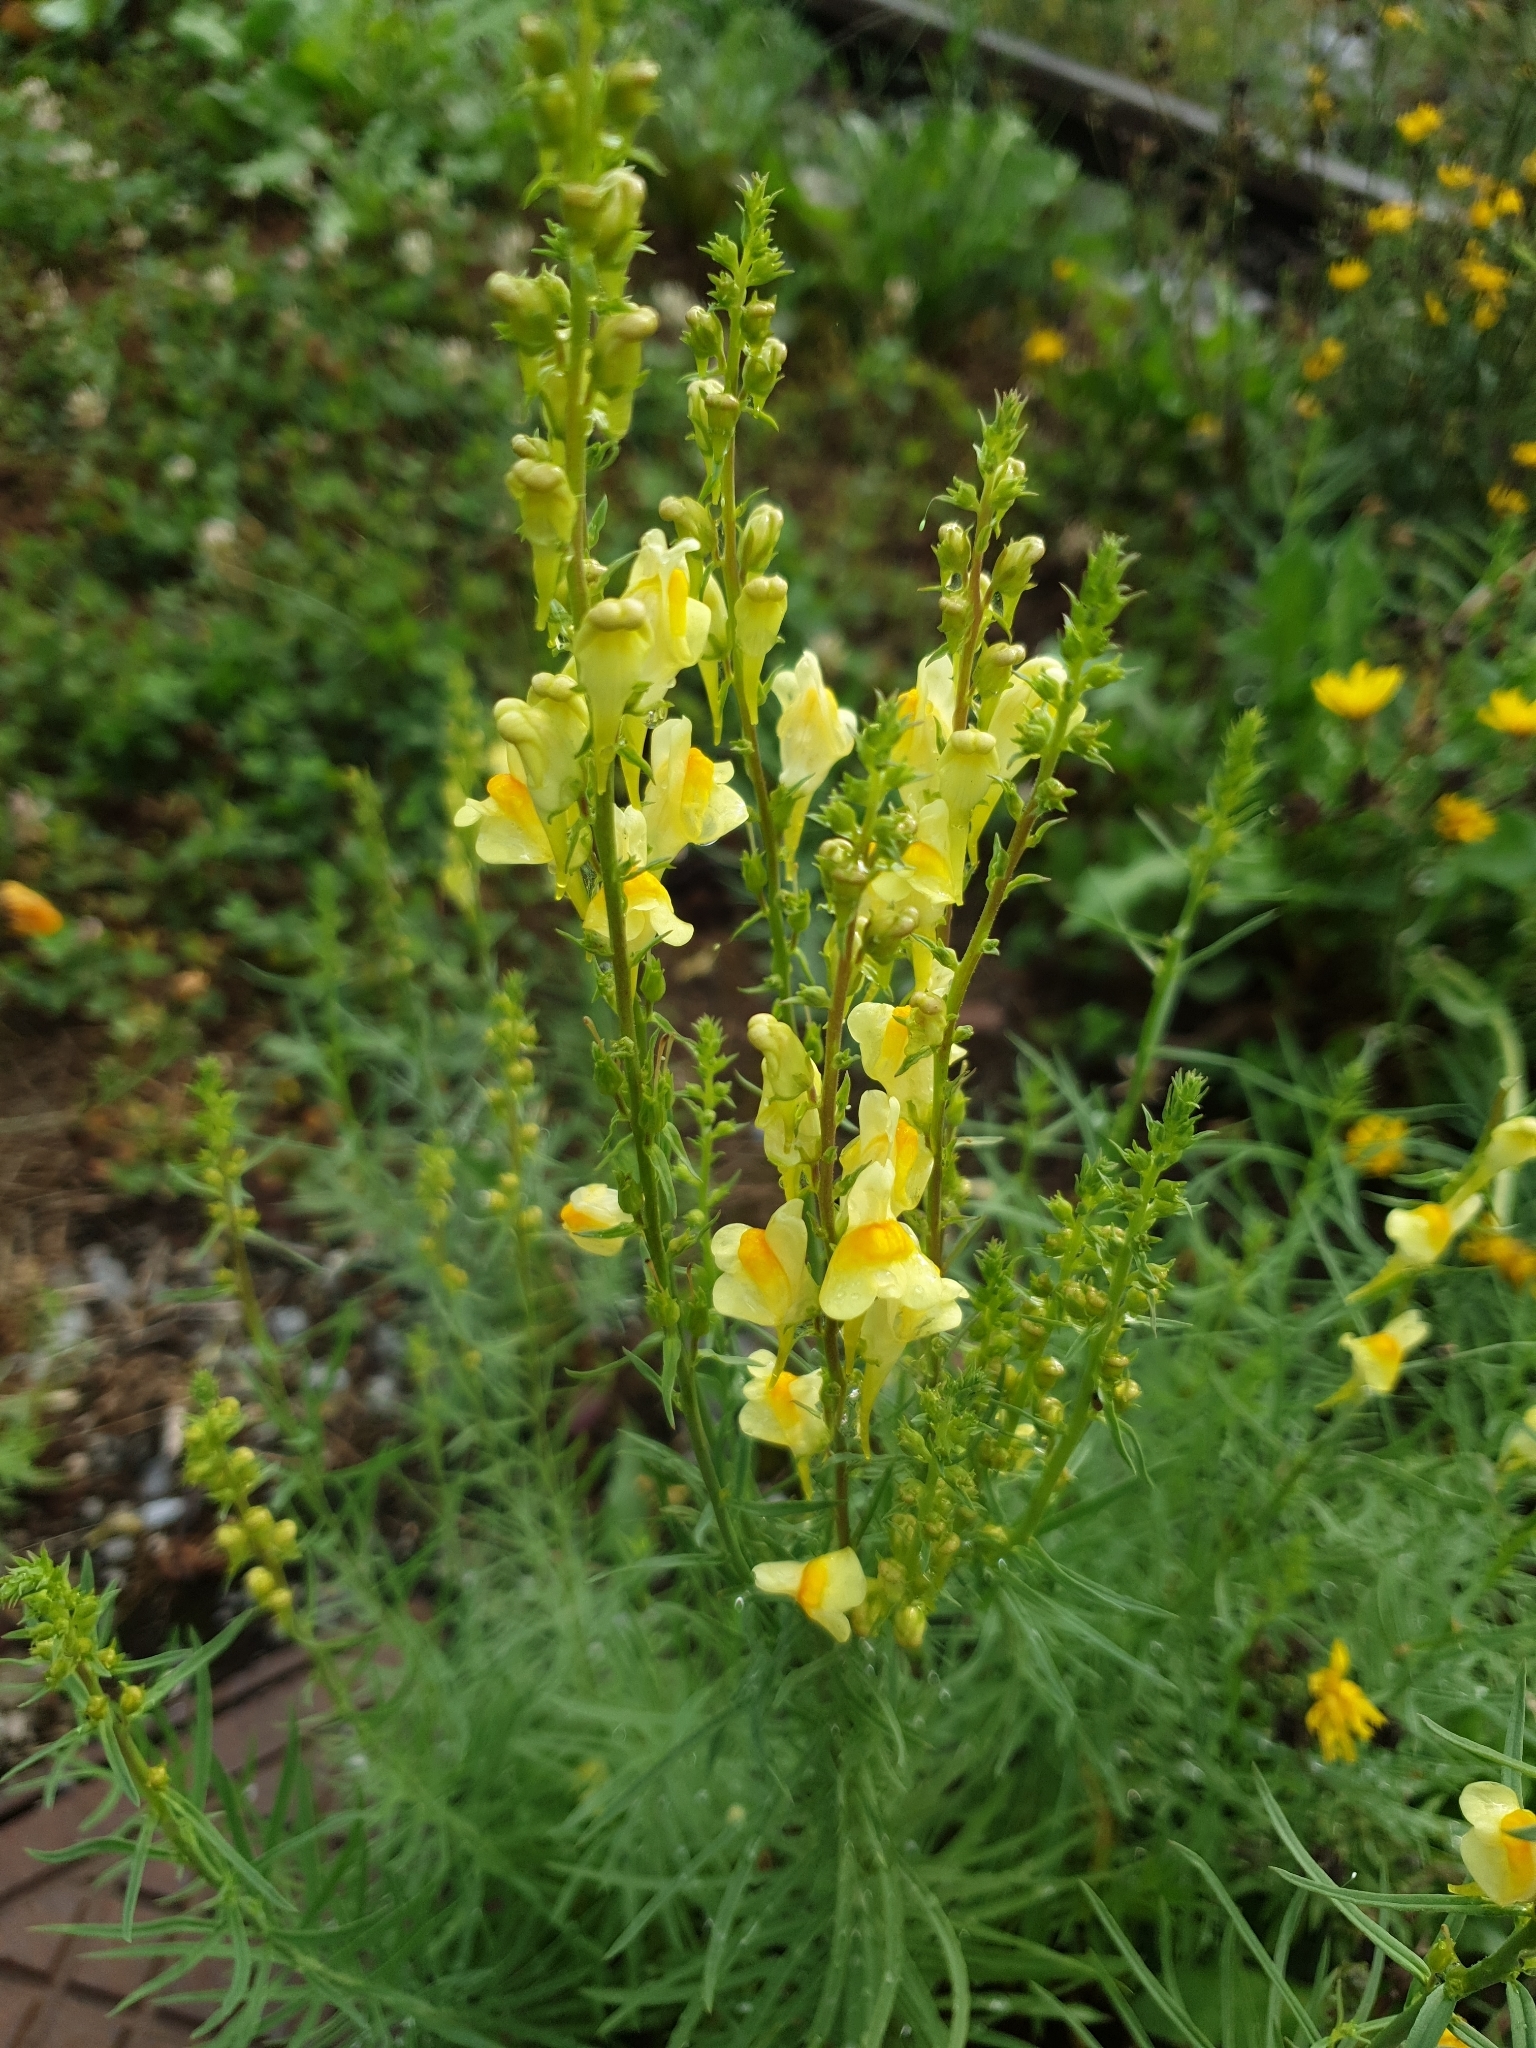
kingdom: Plantae
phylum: Tracheophyta
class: Magnoliopsida
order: Lamiales
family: Plantaginaceae
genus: Linaria
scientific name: Linaria vulgaris
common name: Butter and eggs
